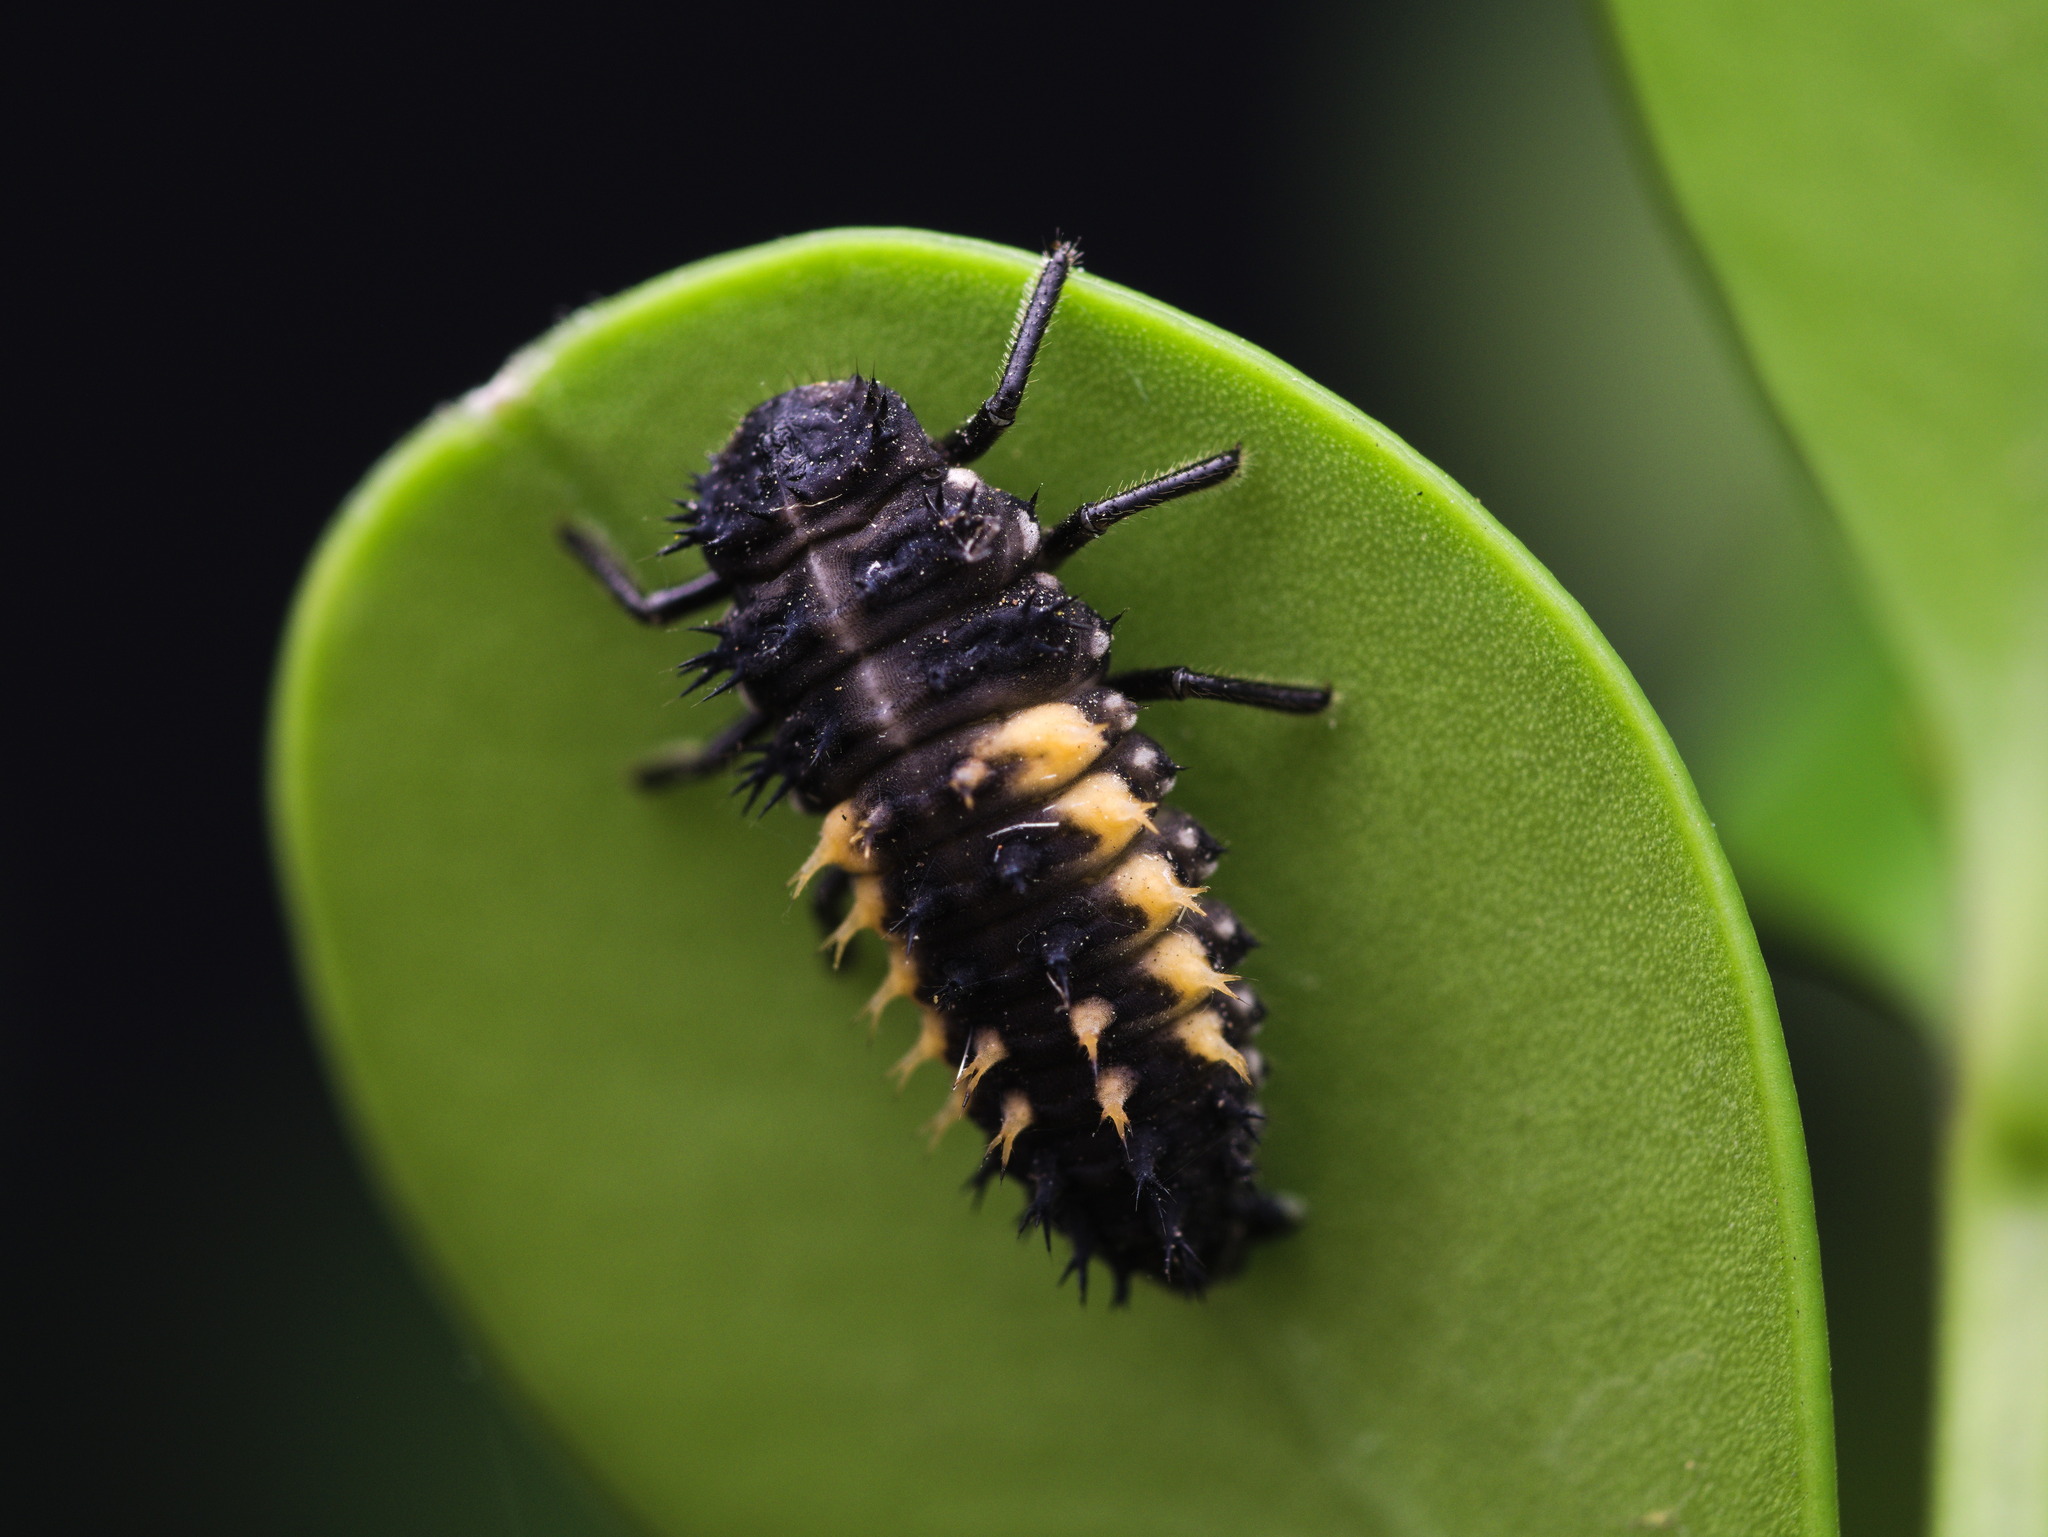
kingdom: Animalia
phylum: Arthropoda
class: Insecta
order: Coleoptera
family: Coccinellidae
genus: Harmonia
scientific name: Harmonia axyridis
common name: Harlequin ladybird
